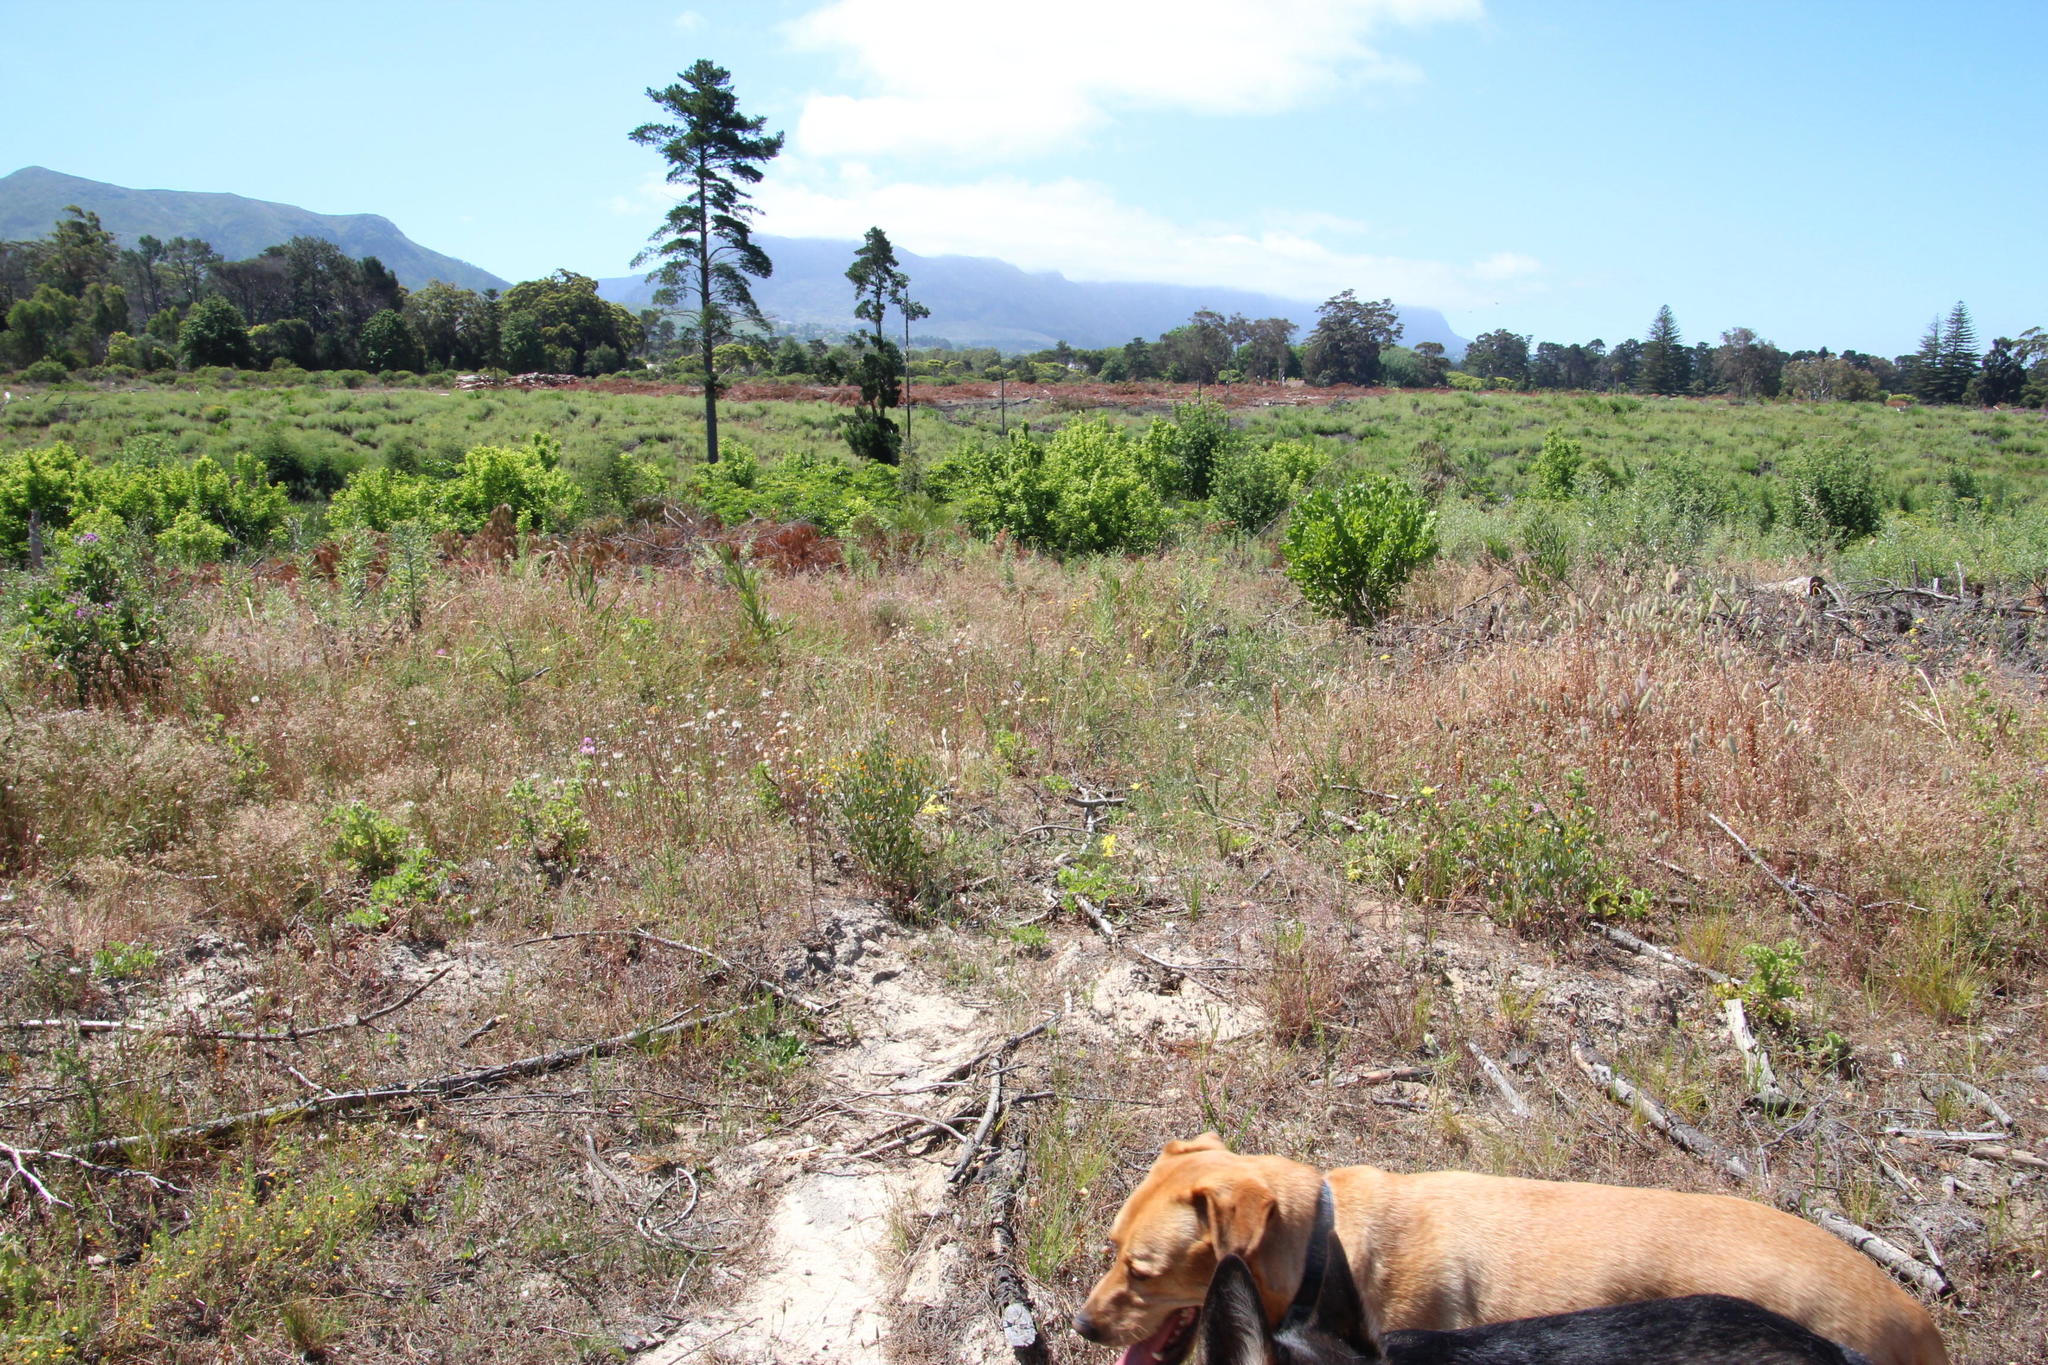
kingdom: Plantae
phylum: Tracheophyta
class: Liliopsida
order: Asparagales
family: Iridaceae
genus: Moraea
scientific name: Moraea fugax
